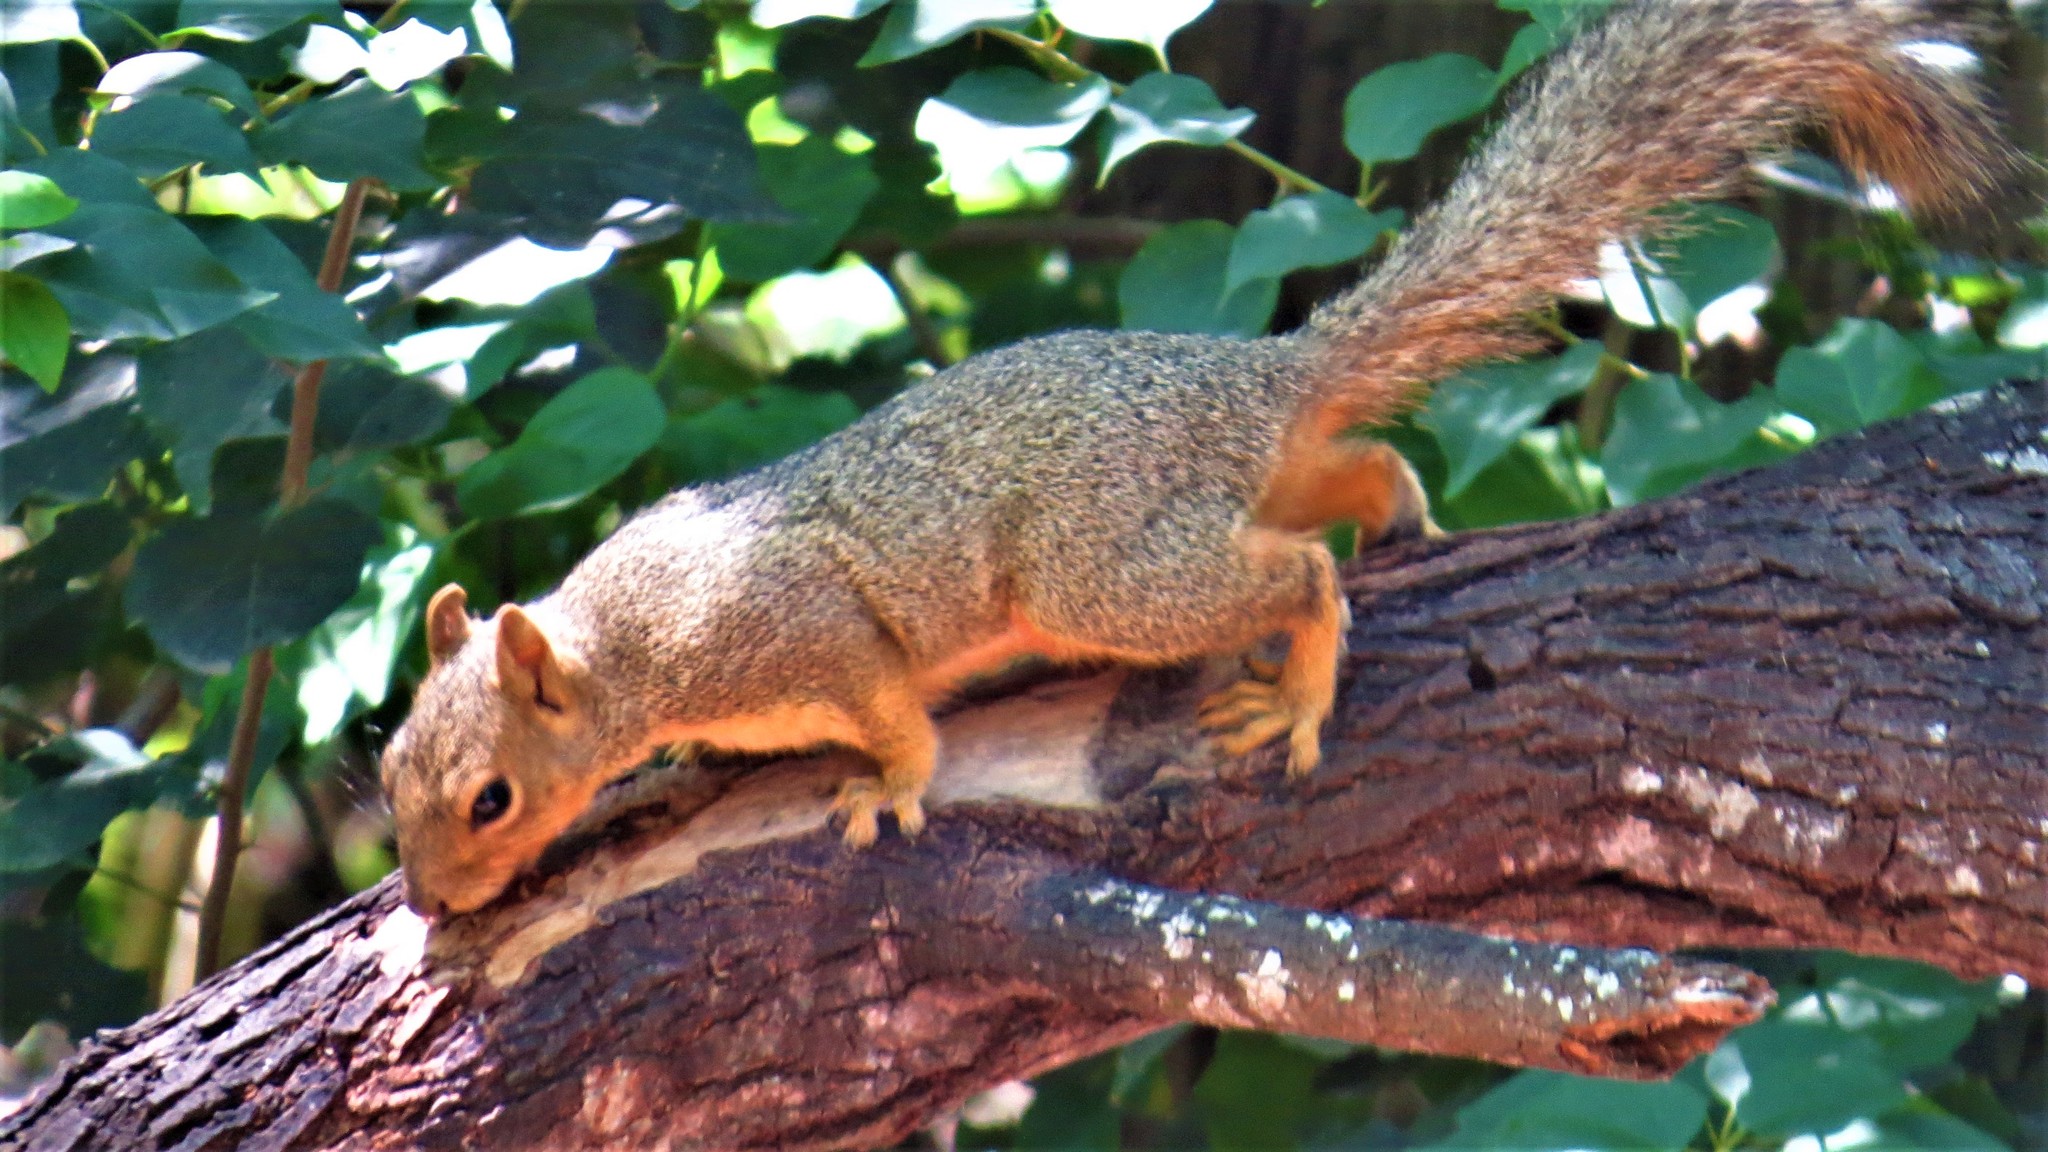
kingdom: Animalia
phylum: Chordata
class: Mammalia
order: Rodentia
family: Sciuridae
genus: Sciurus
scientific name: Sciurus niger
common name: Fox squirrel
